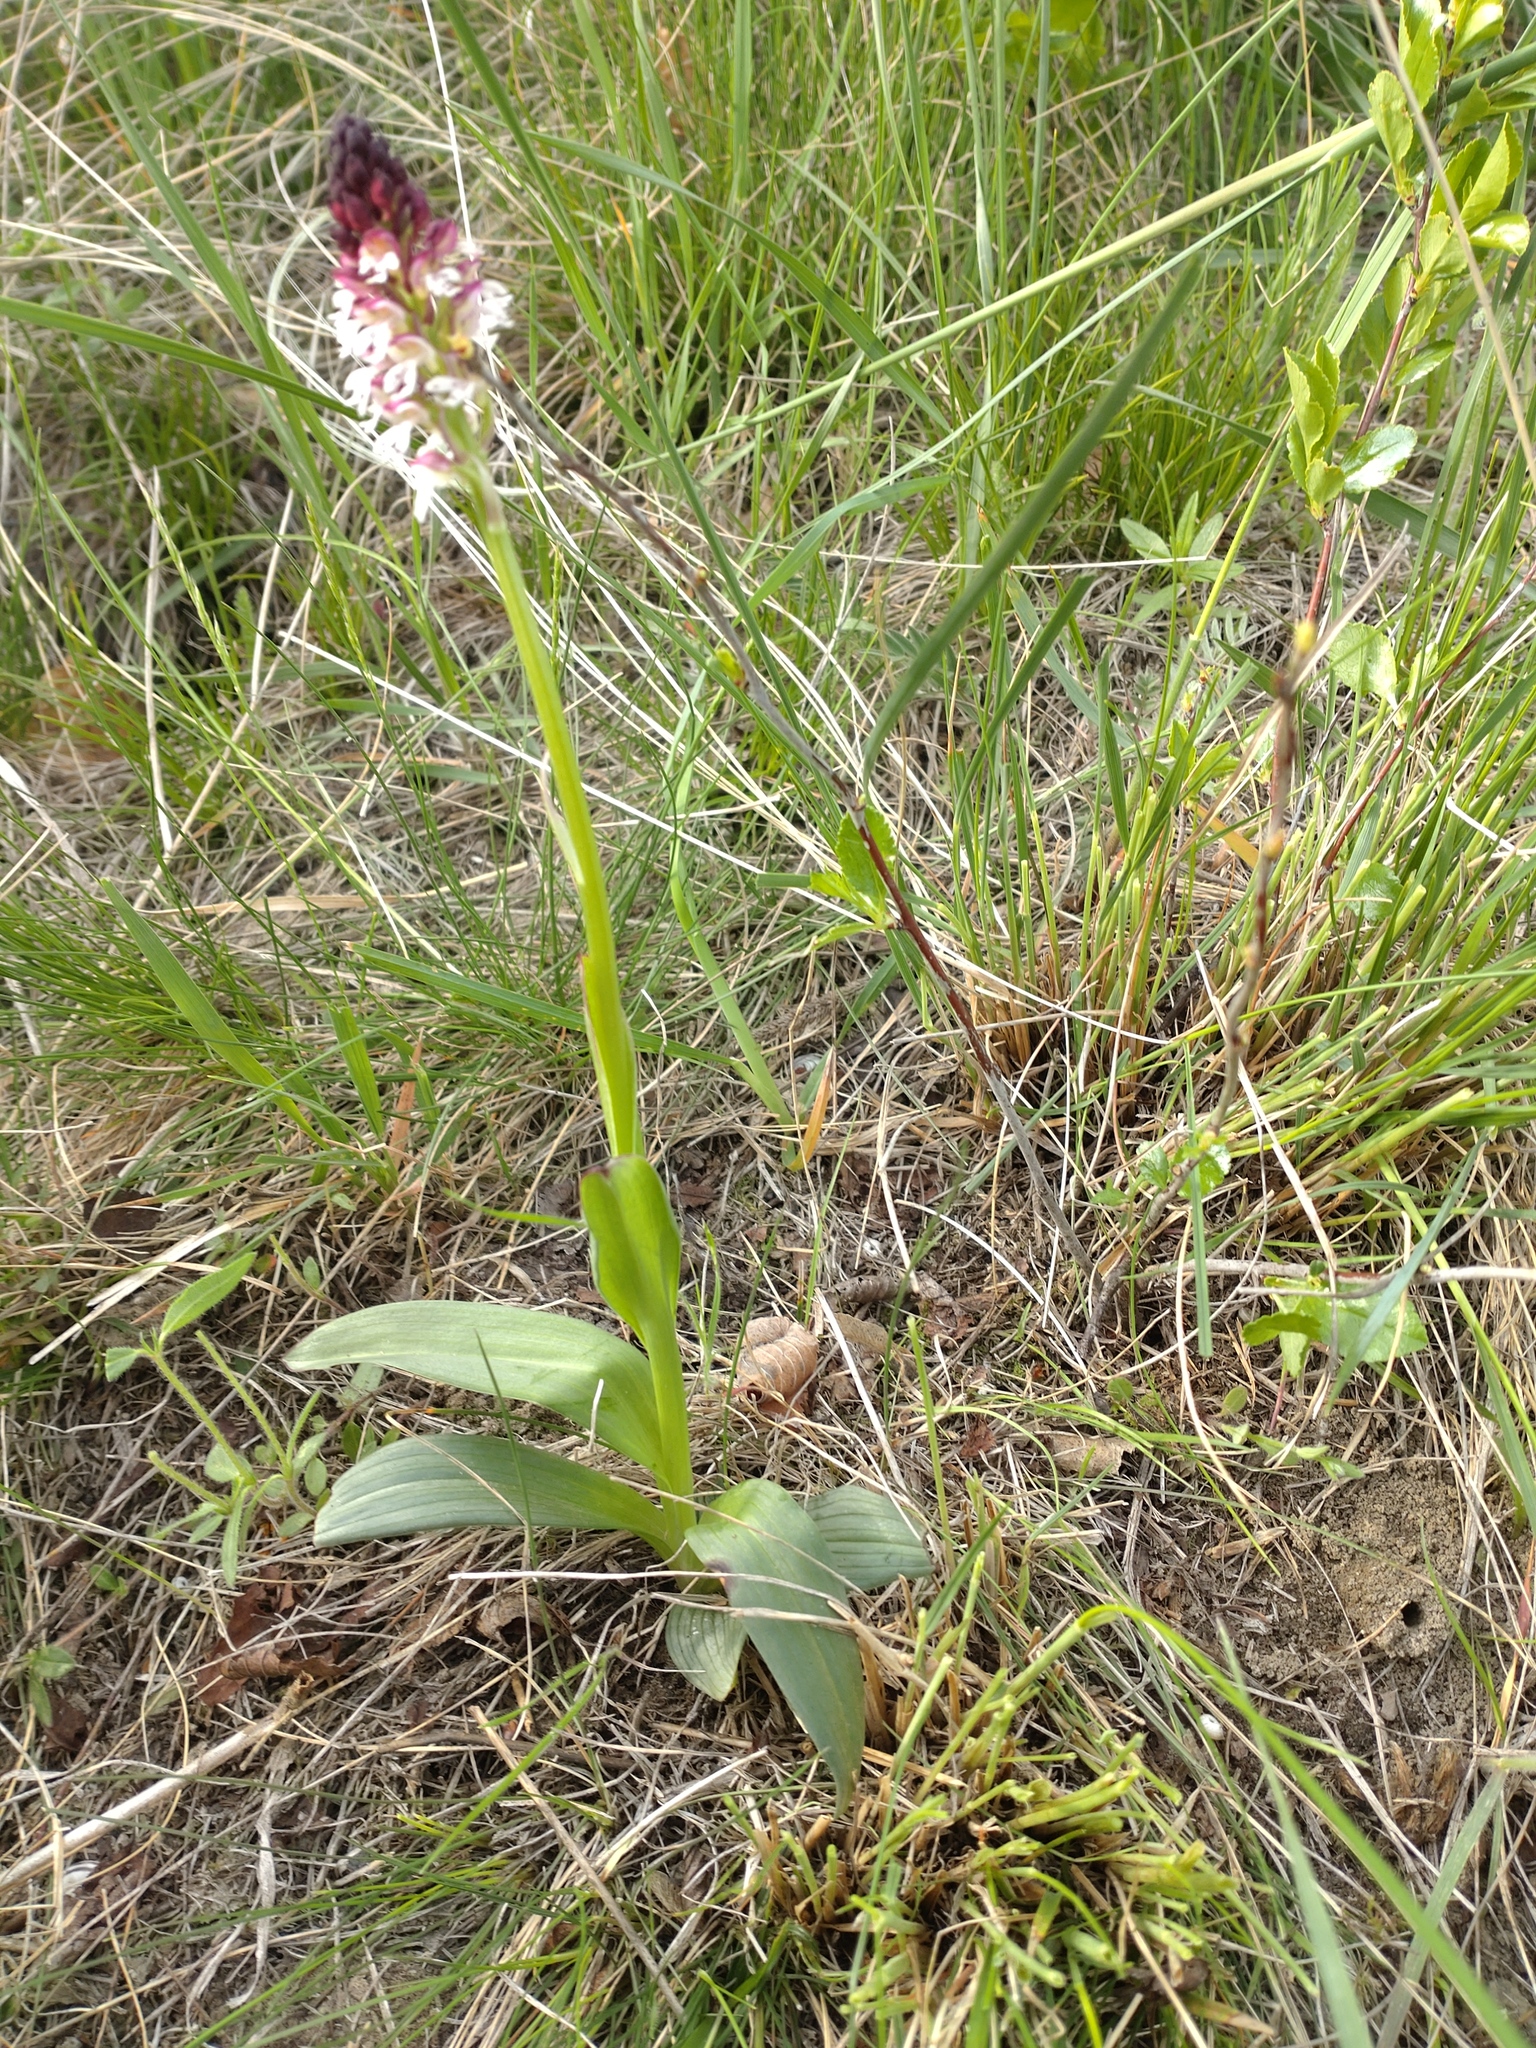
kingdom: Plantae
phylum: Tracheophyta
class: Liliopsida
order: Asparagales
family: Orchidaceae
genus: Neotinea
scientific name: Neotinea ustulata
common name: Burnt orchid
